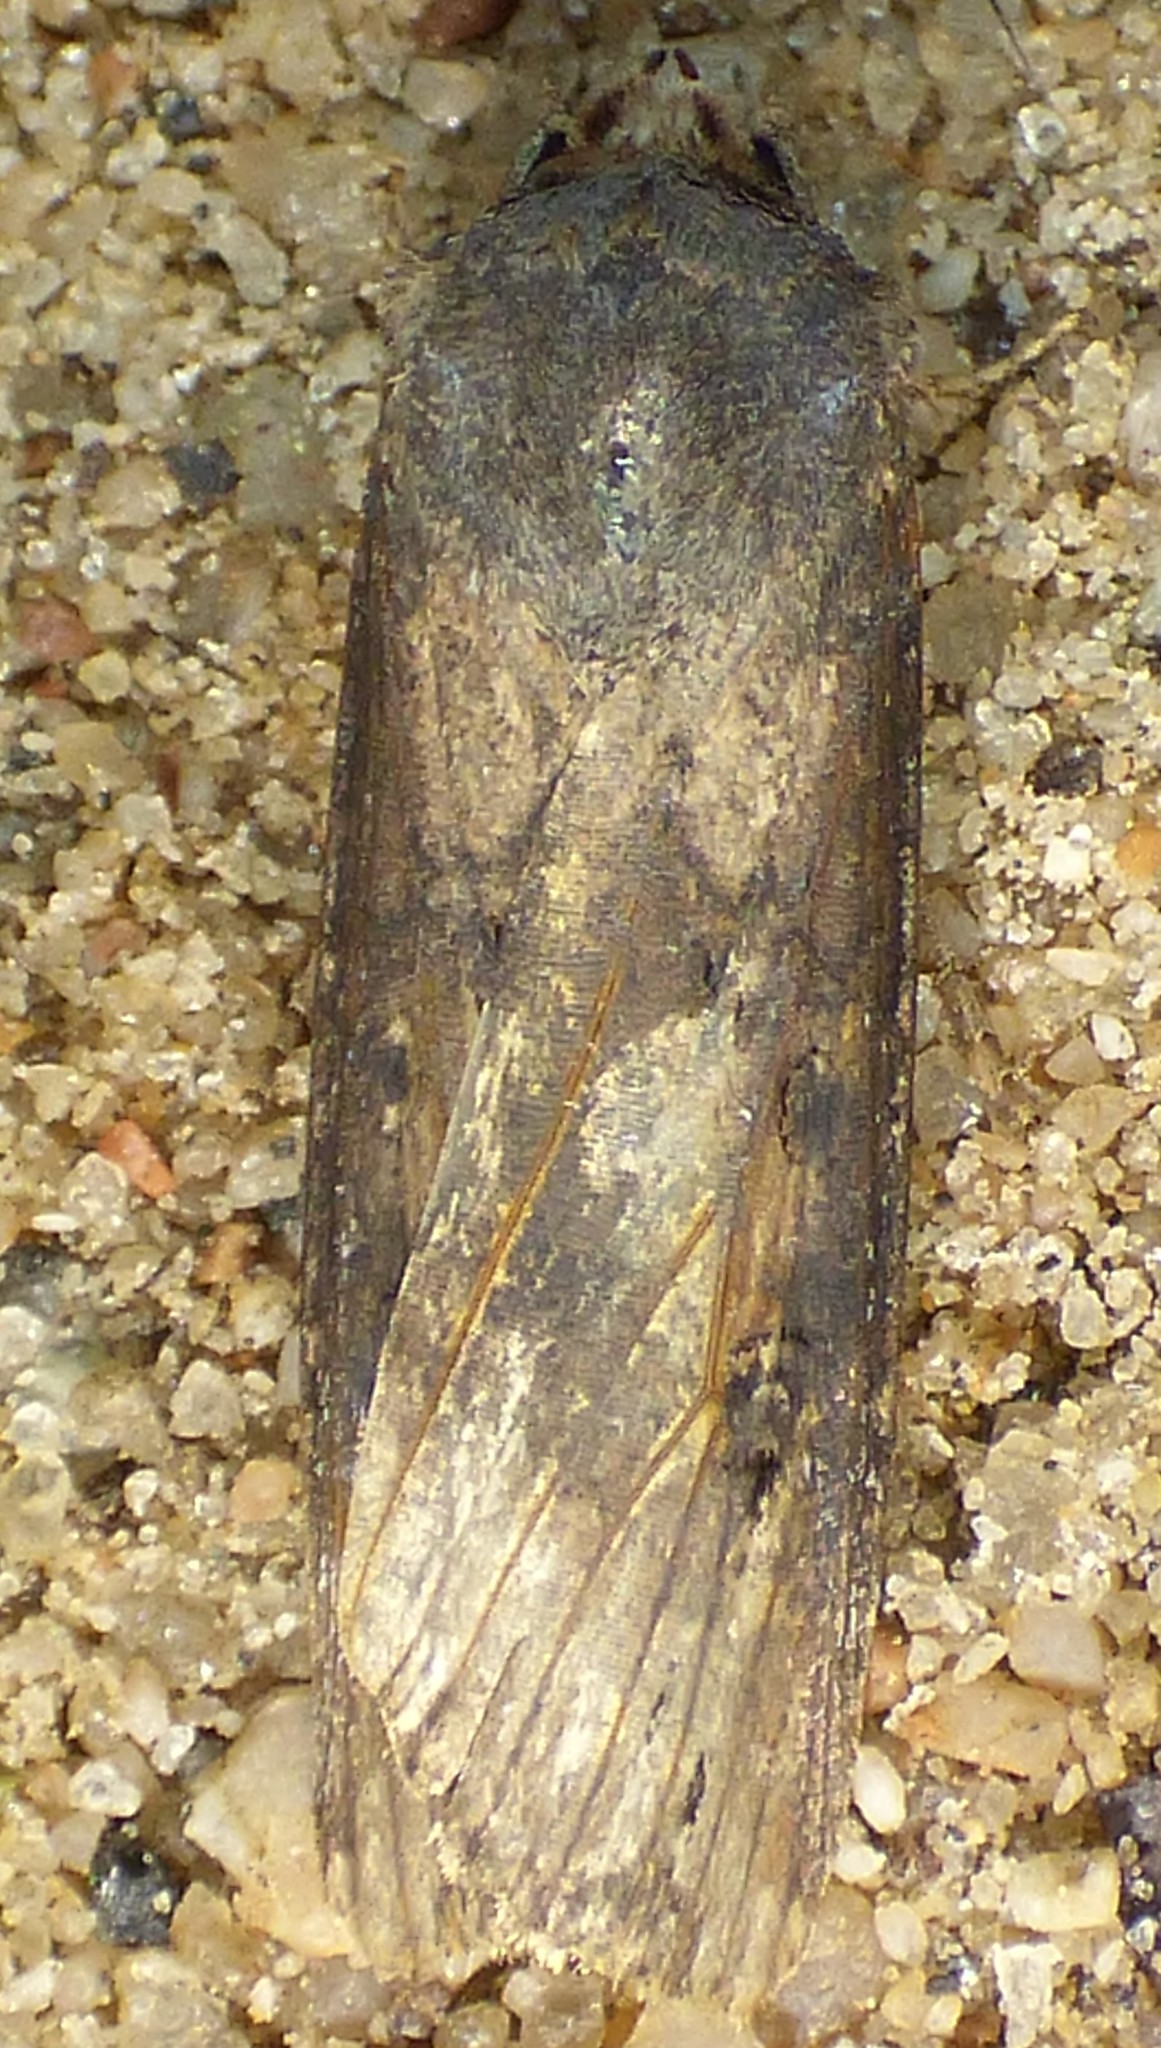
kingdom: Animalia
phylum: Arthropoda
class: Insecta
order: Lepidoptera
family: Noctuidae
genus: Agrotis
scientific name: Agrotis ipsilon
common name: Dark sword-grass
